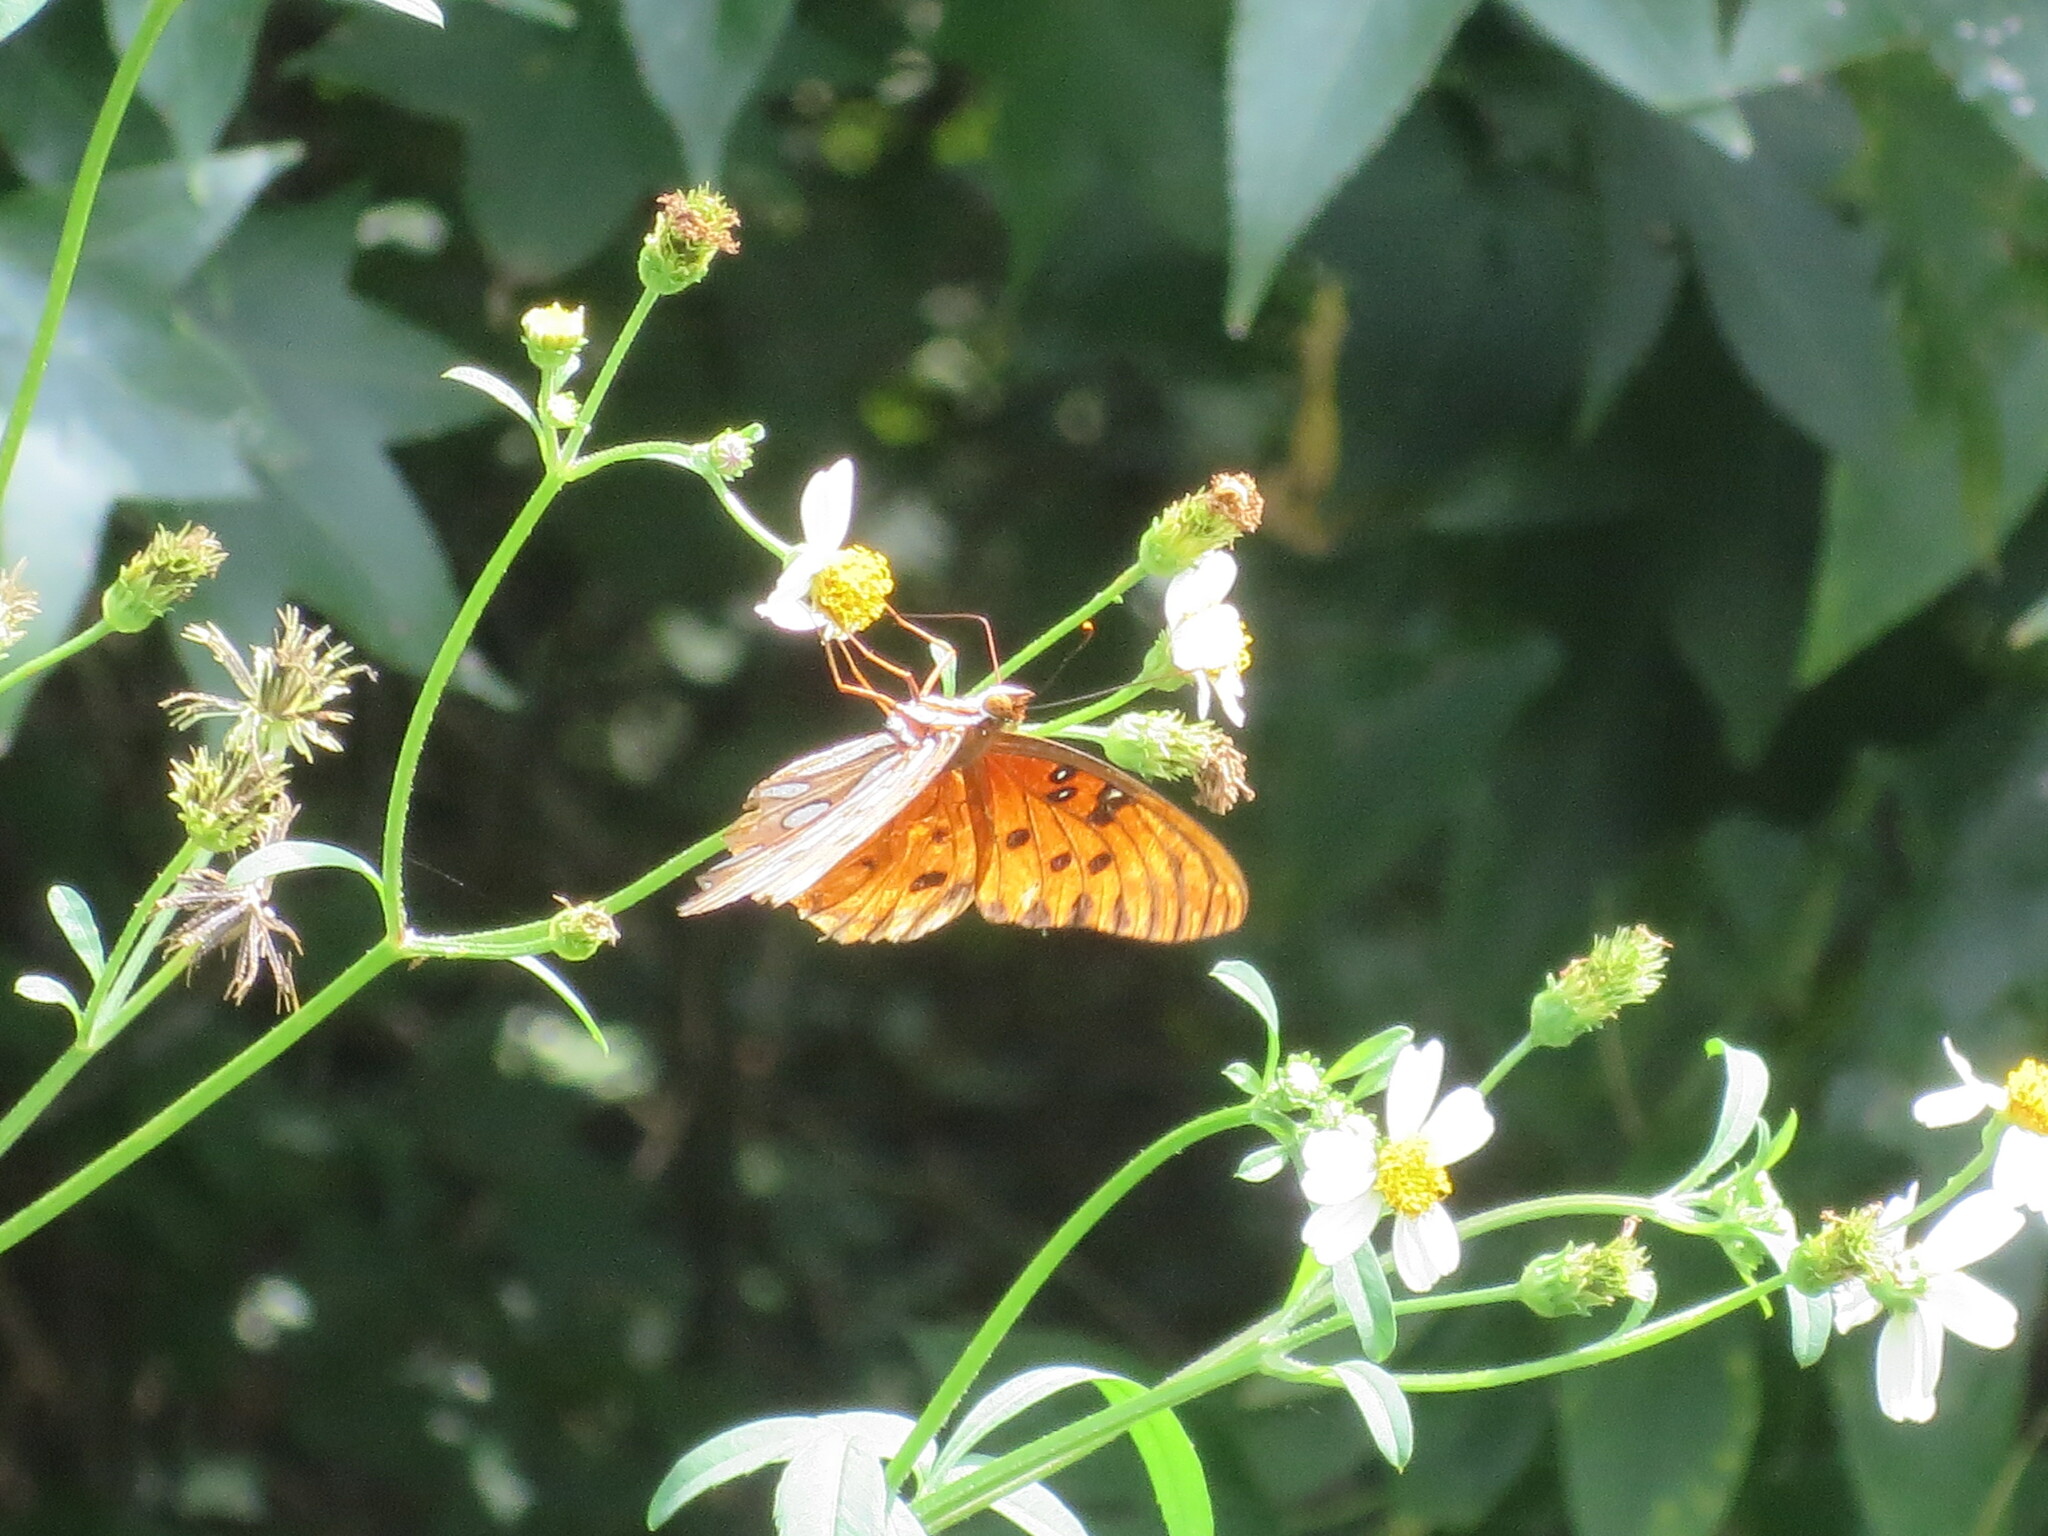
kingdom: Animalia
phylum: Arthropoda
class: Insecta
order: Lepidoptera
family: Nymphalidae
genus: Dione
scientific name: Dione vanillae
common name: Gulf fritillary
